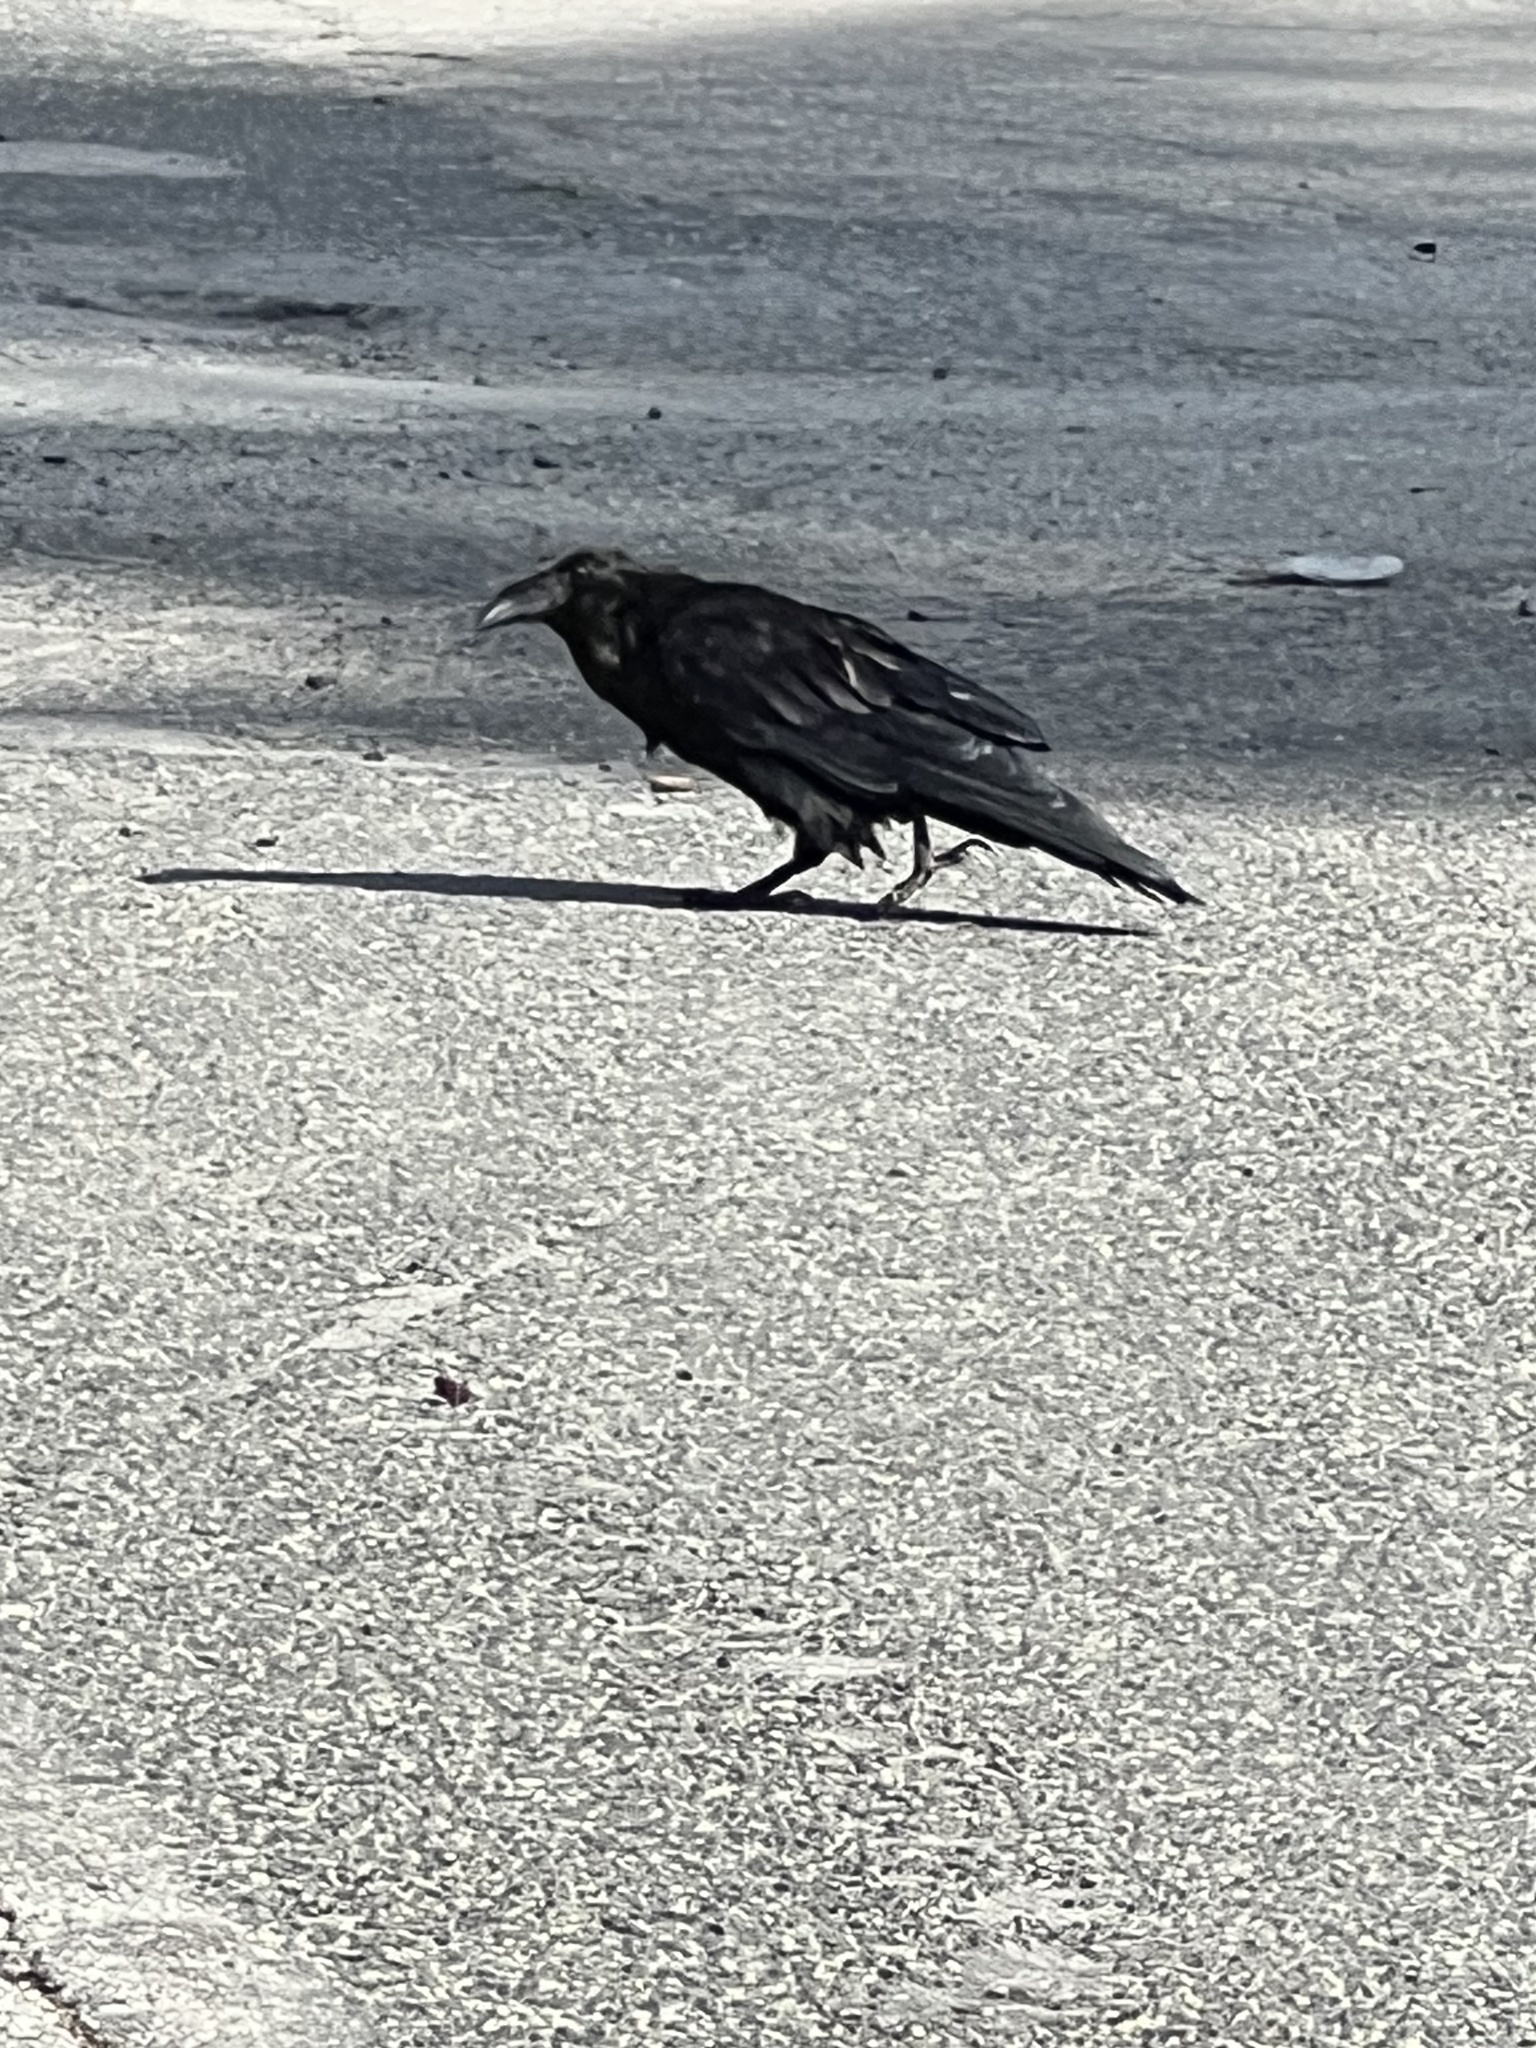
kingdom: Animalia
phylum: Chordata
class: Aves
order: Passeriformes
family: Corvidae
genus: Corvus
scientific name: Corvus corax
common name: Common raven
